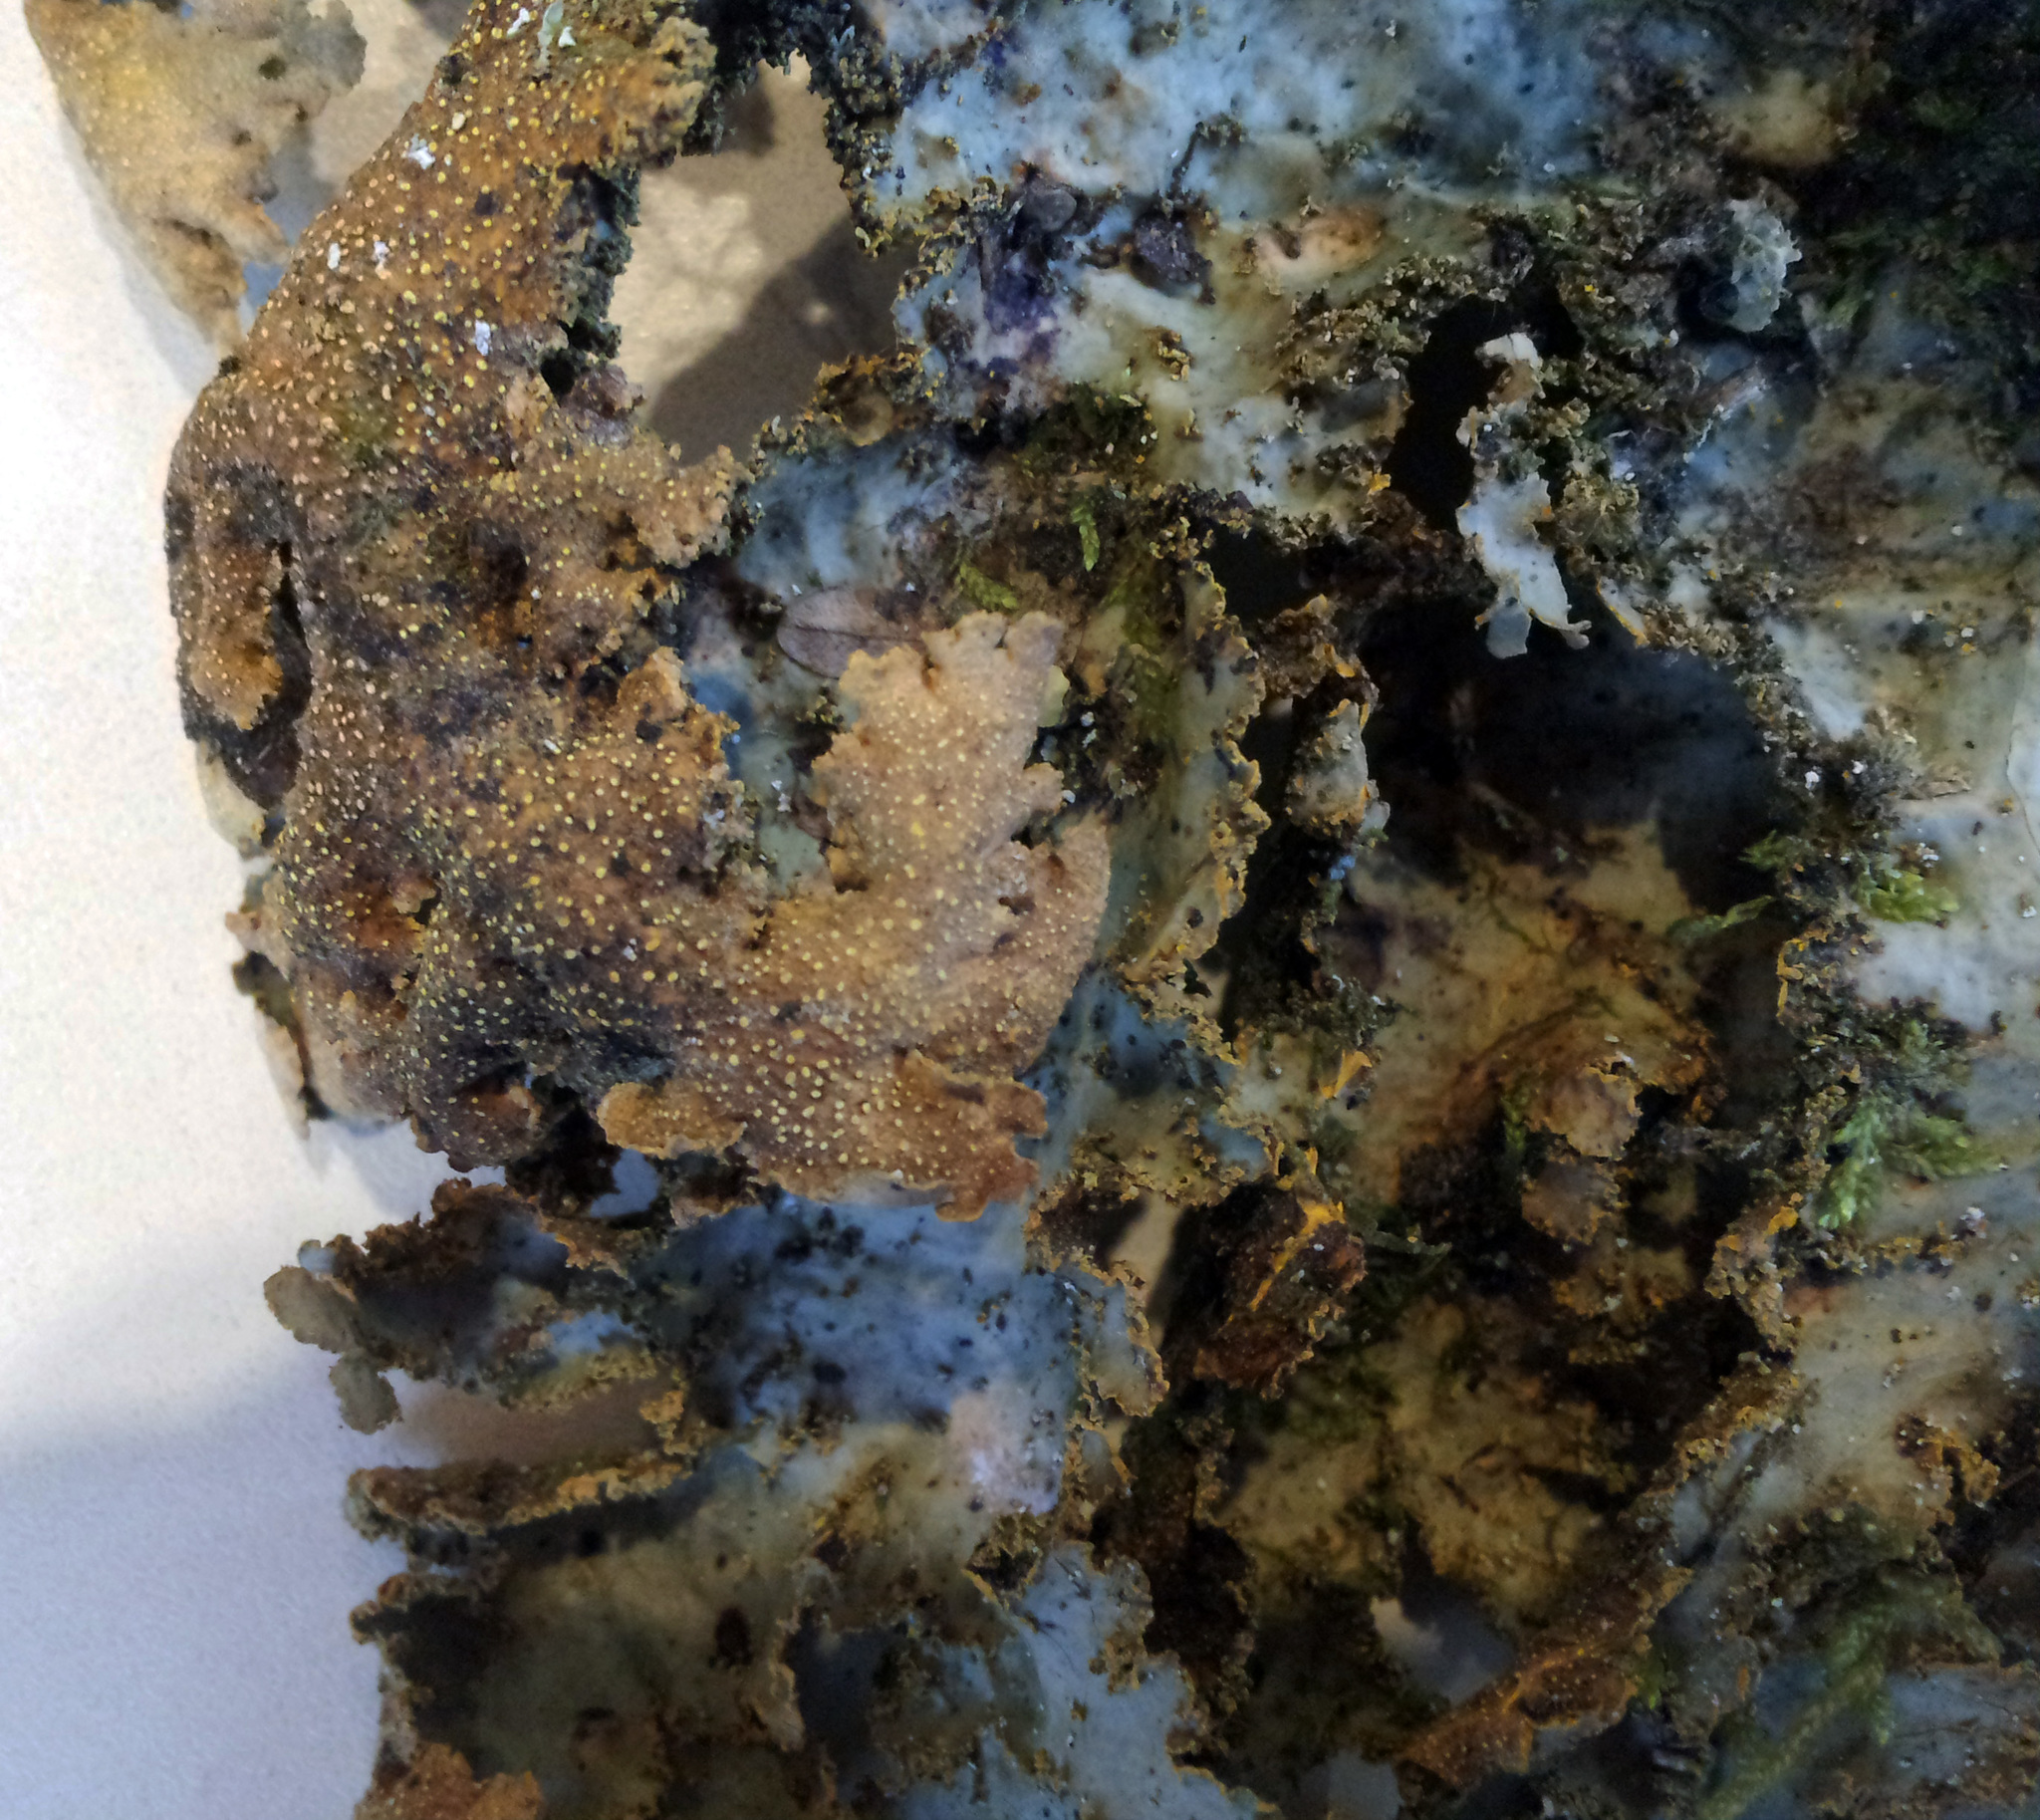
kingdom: Fungi
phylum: Ascomycota
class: Lecanoromycetes
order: Peltigerales
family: Lobariaceae
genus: Yarrumia
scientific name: Yarrumia colensoi
